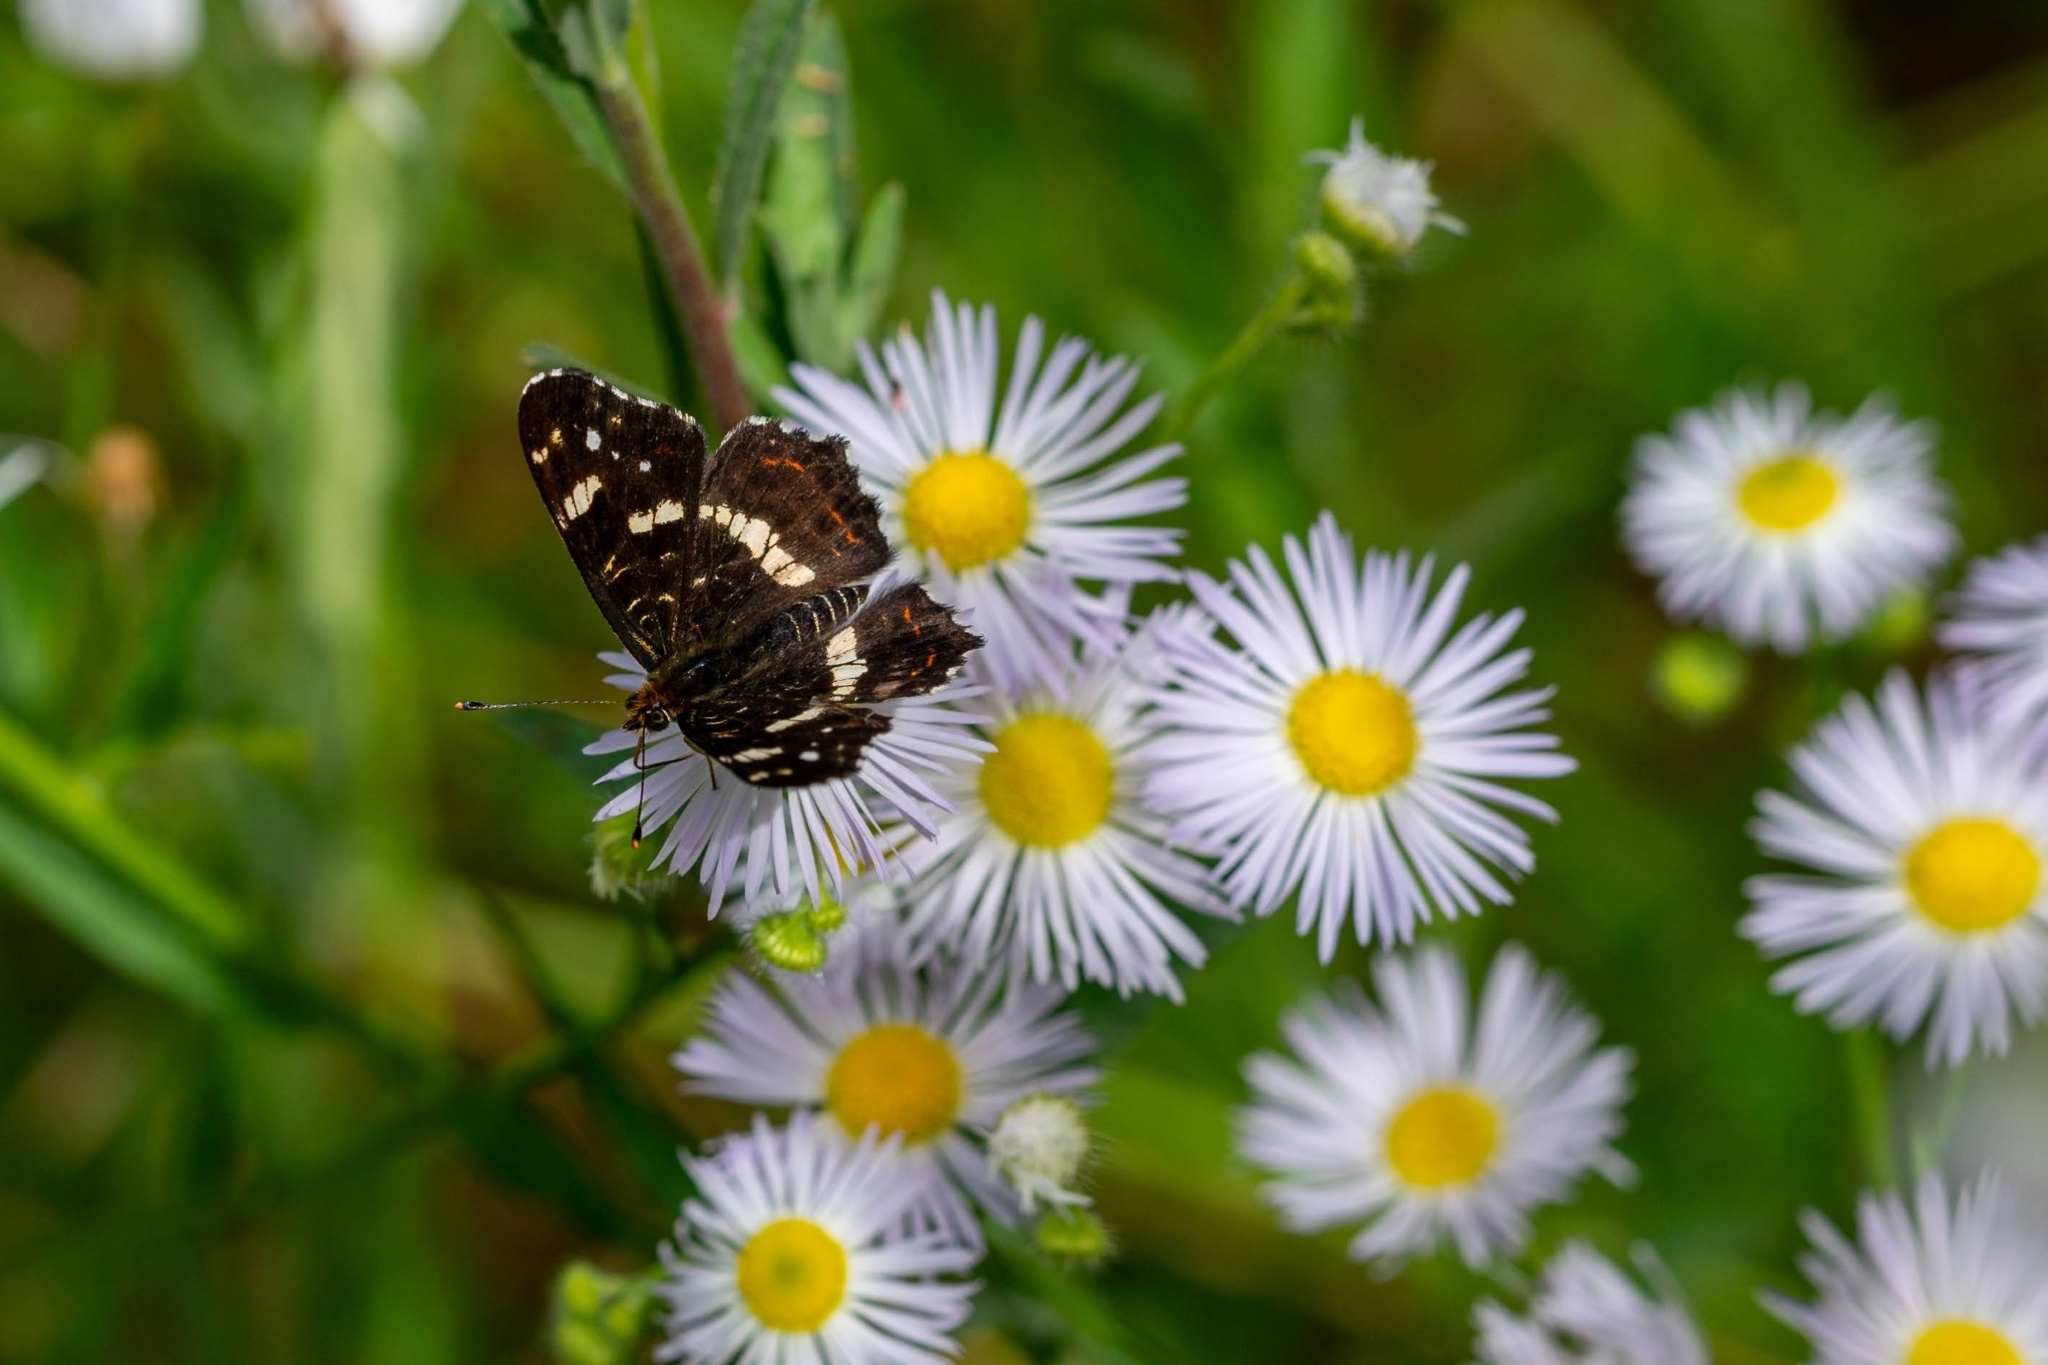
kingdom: Animalia
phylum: Arthropoda
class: Insecta
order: Lepidoptera
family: Nymphalidae
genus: Araschnia
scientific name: Araschnia levana
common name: Map butterfly
